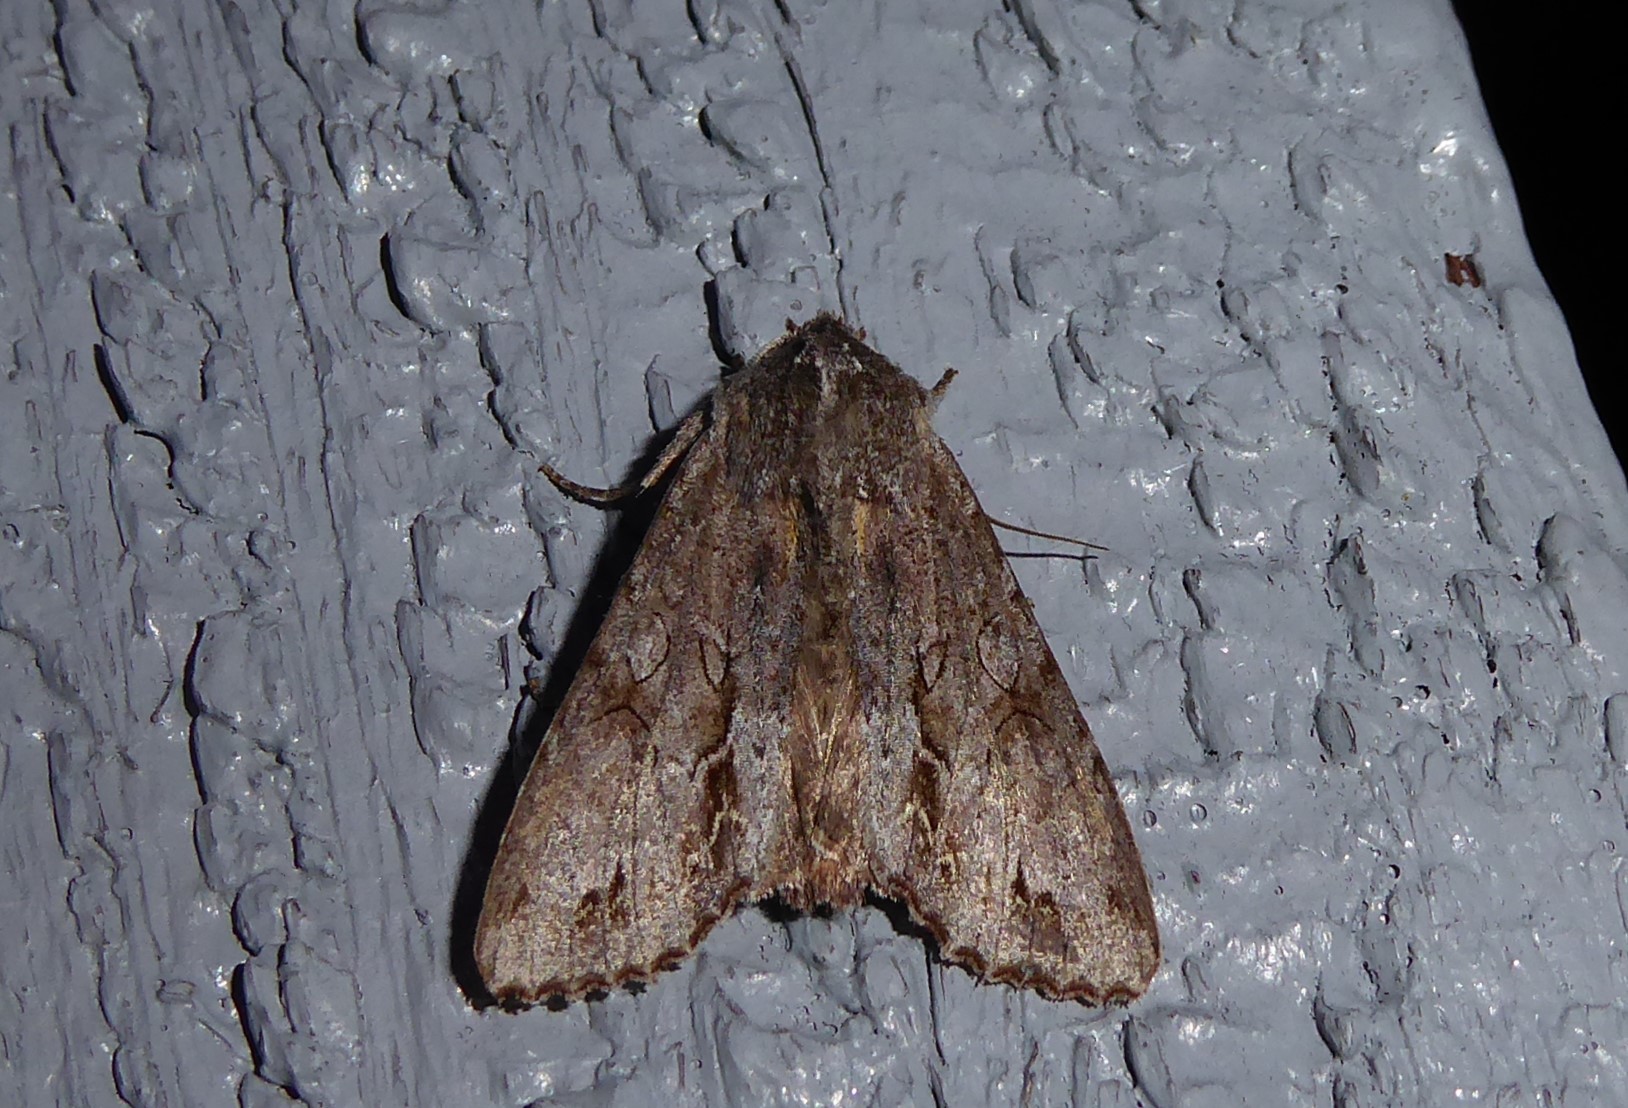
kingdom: Animalia
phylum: Arthropoda
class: Insecta
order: Lepidoptera
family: Noctuidae
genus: Ichneutica
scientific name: Ichneutica
